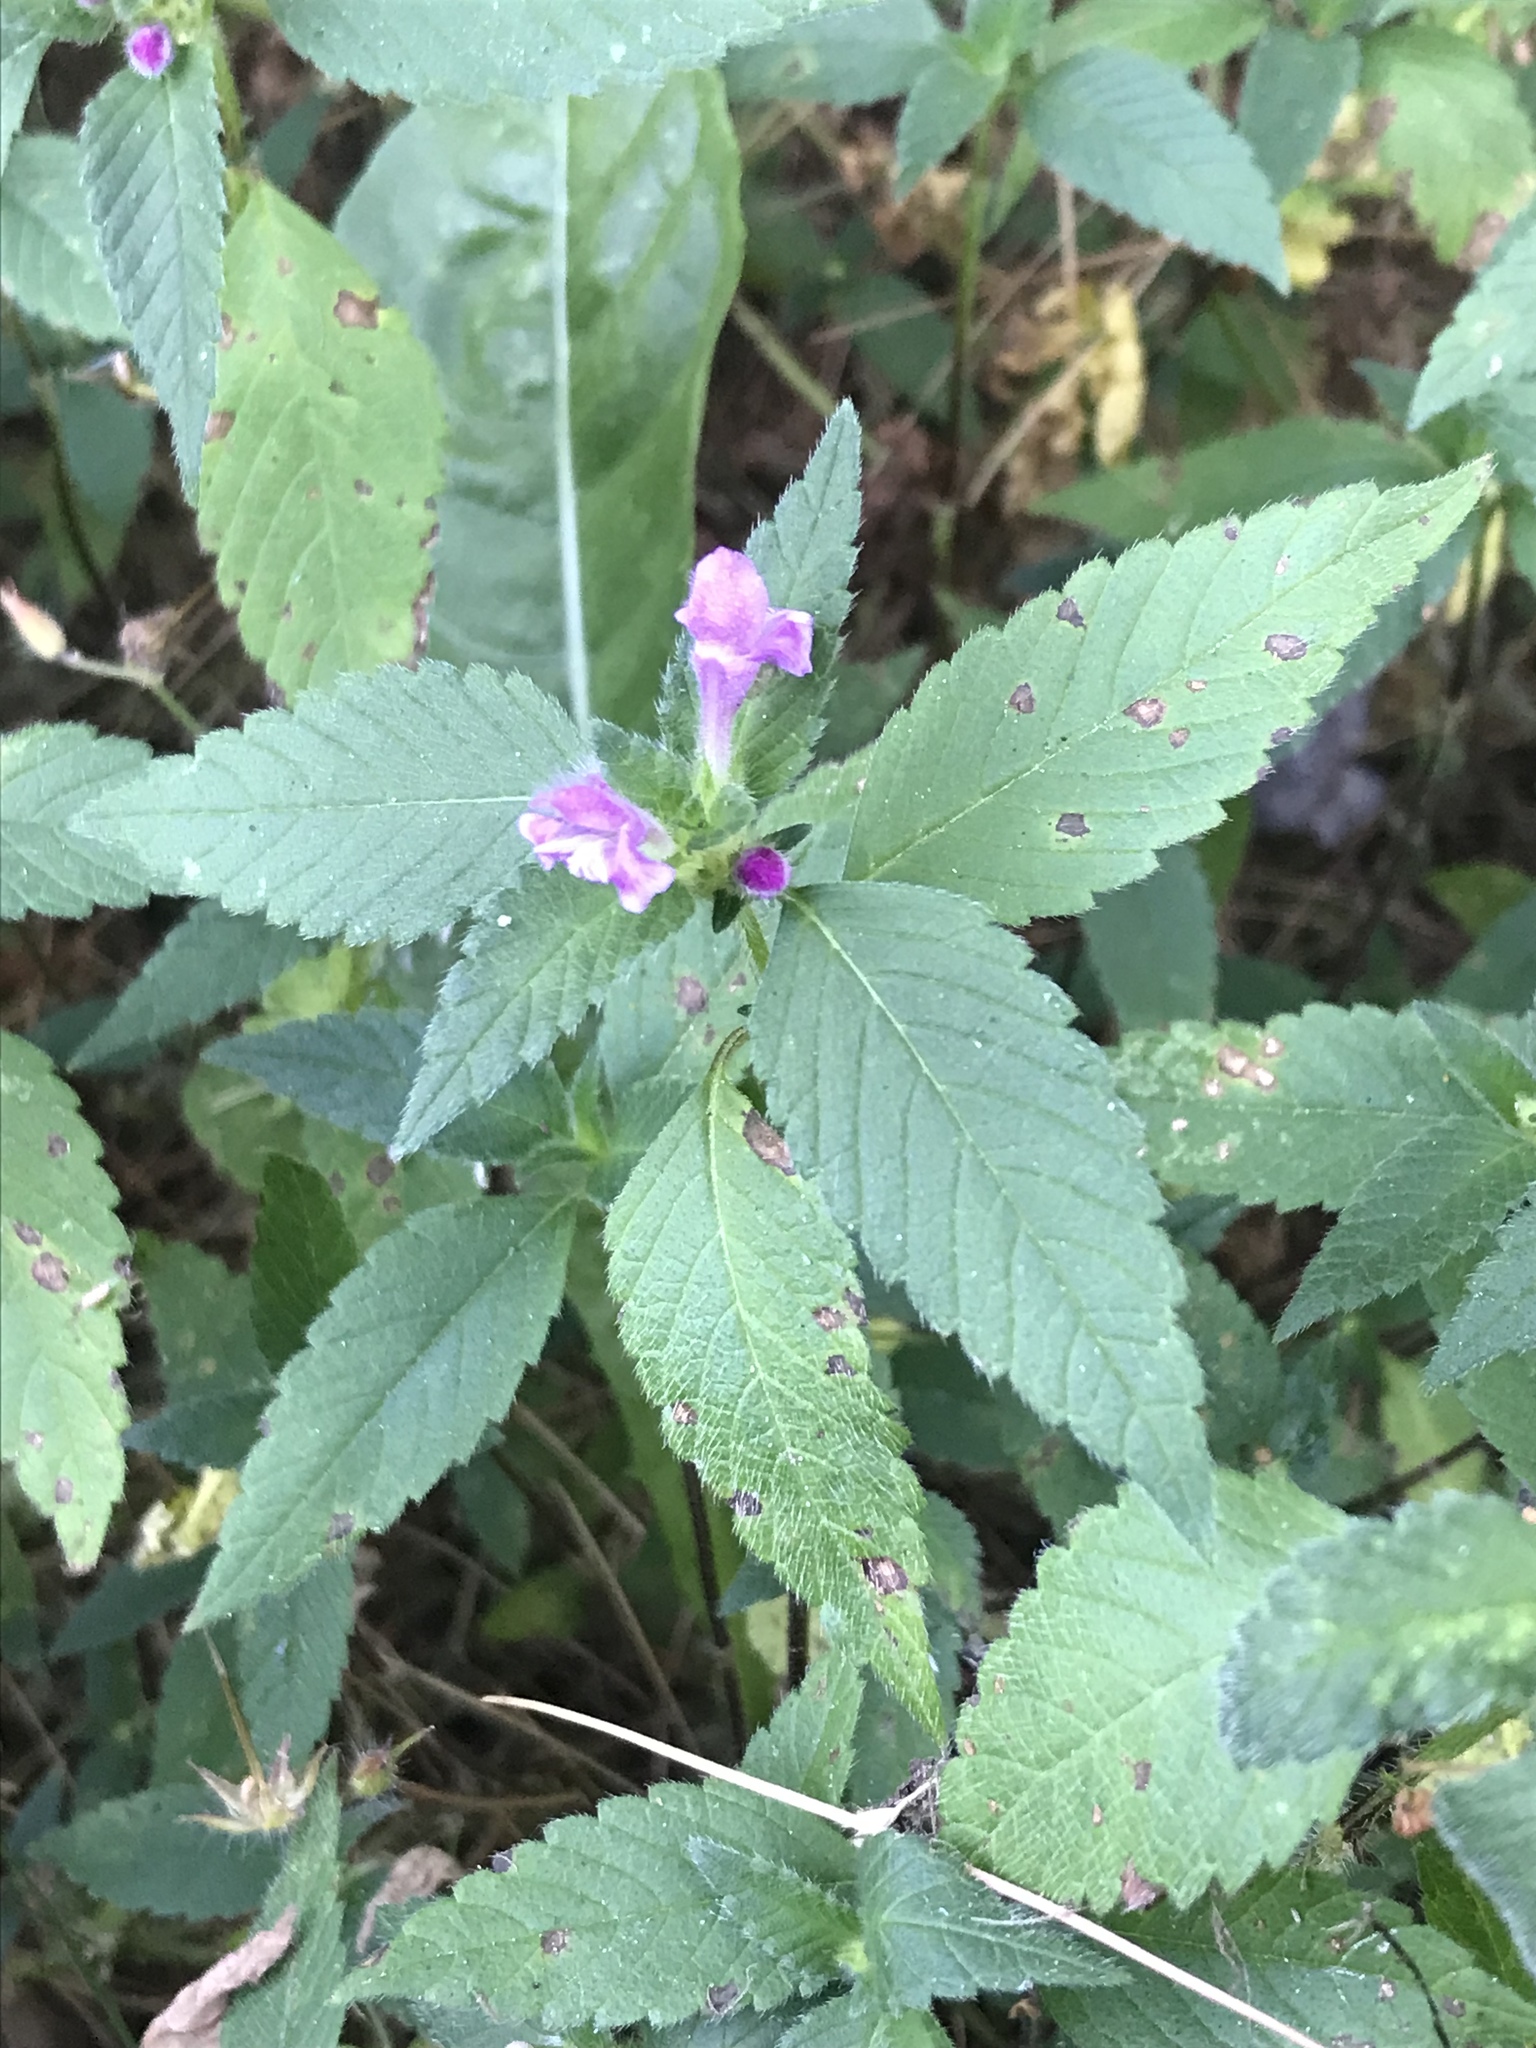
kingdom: Plantae
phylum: Tracheophyta
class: Magnoliopsida
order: Lamiales
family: Lamiaceae
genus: Galeopsis
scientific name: Galeopsis tetrahit
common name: Common hemp-nettle
